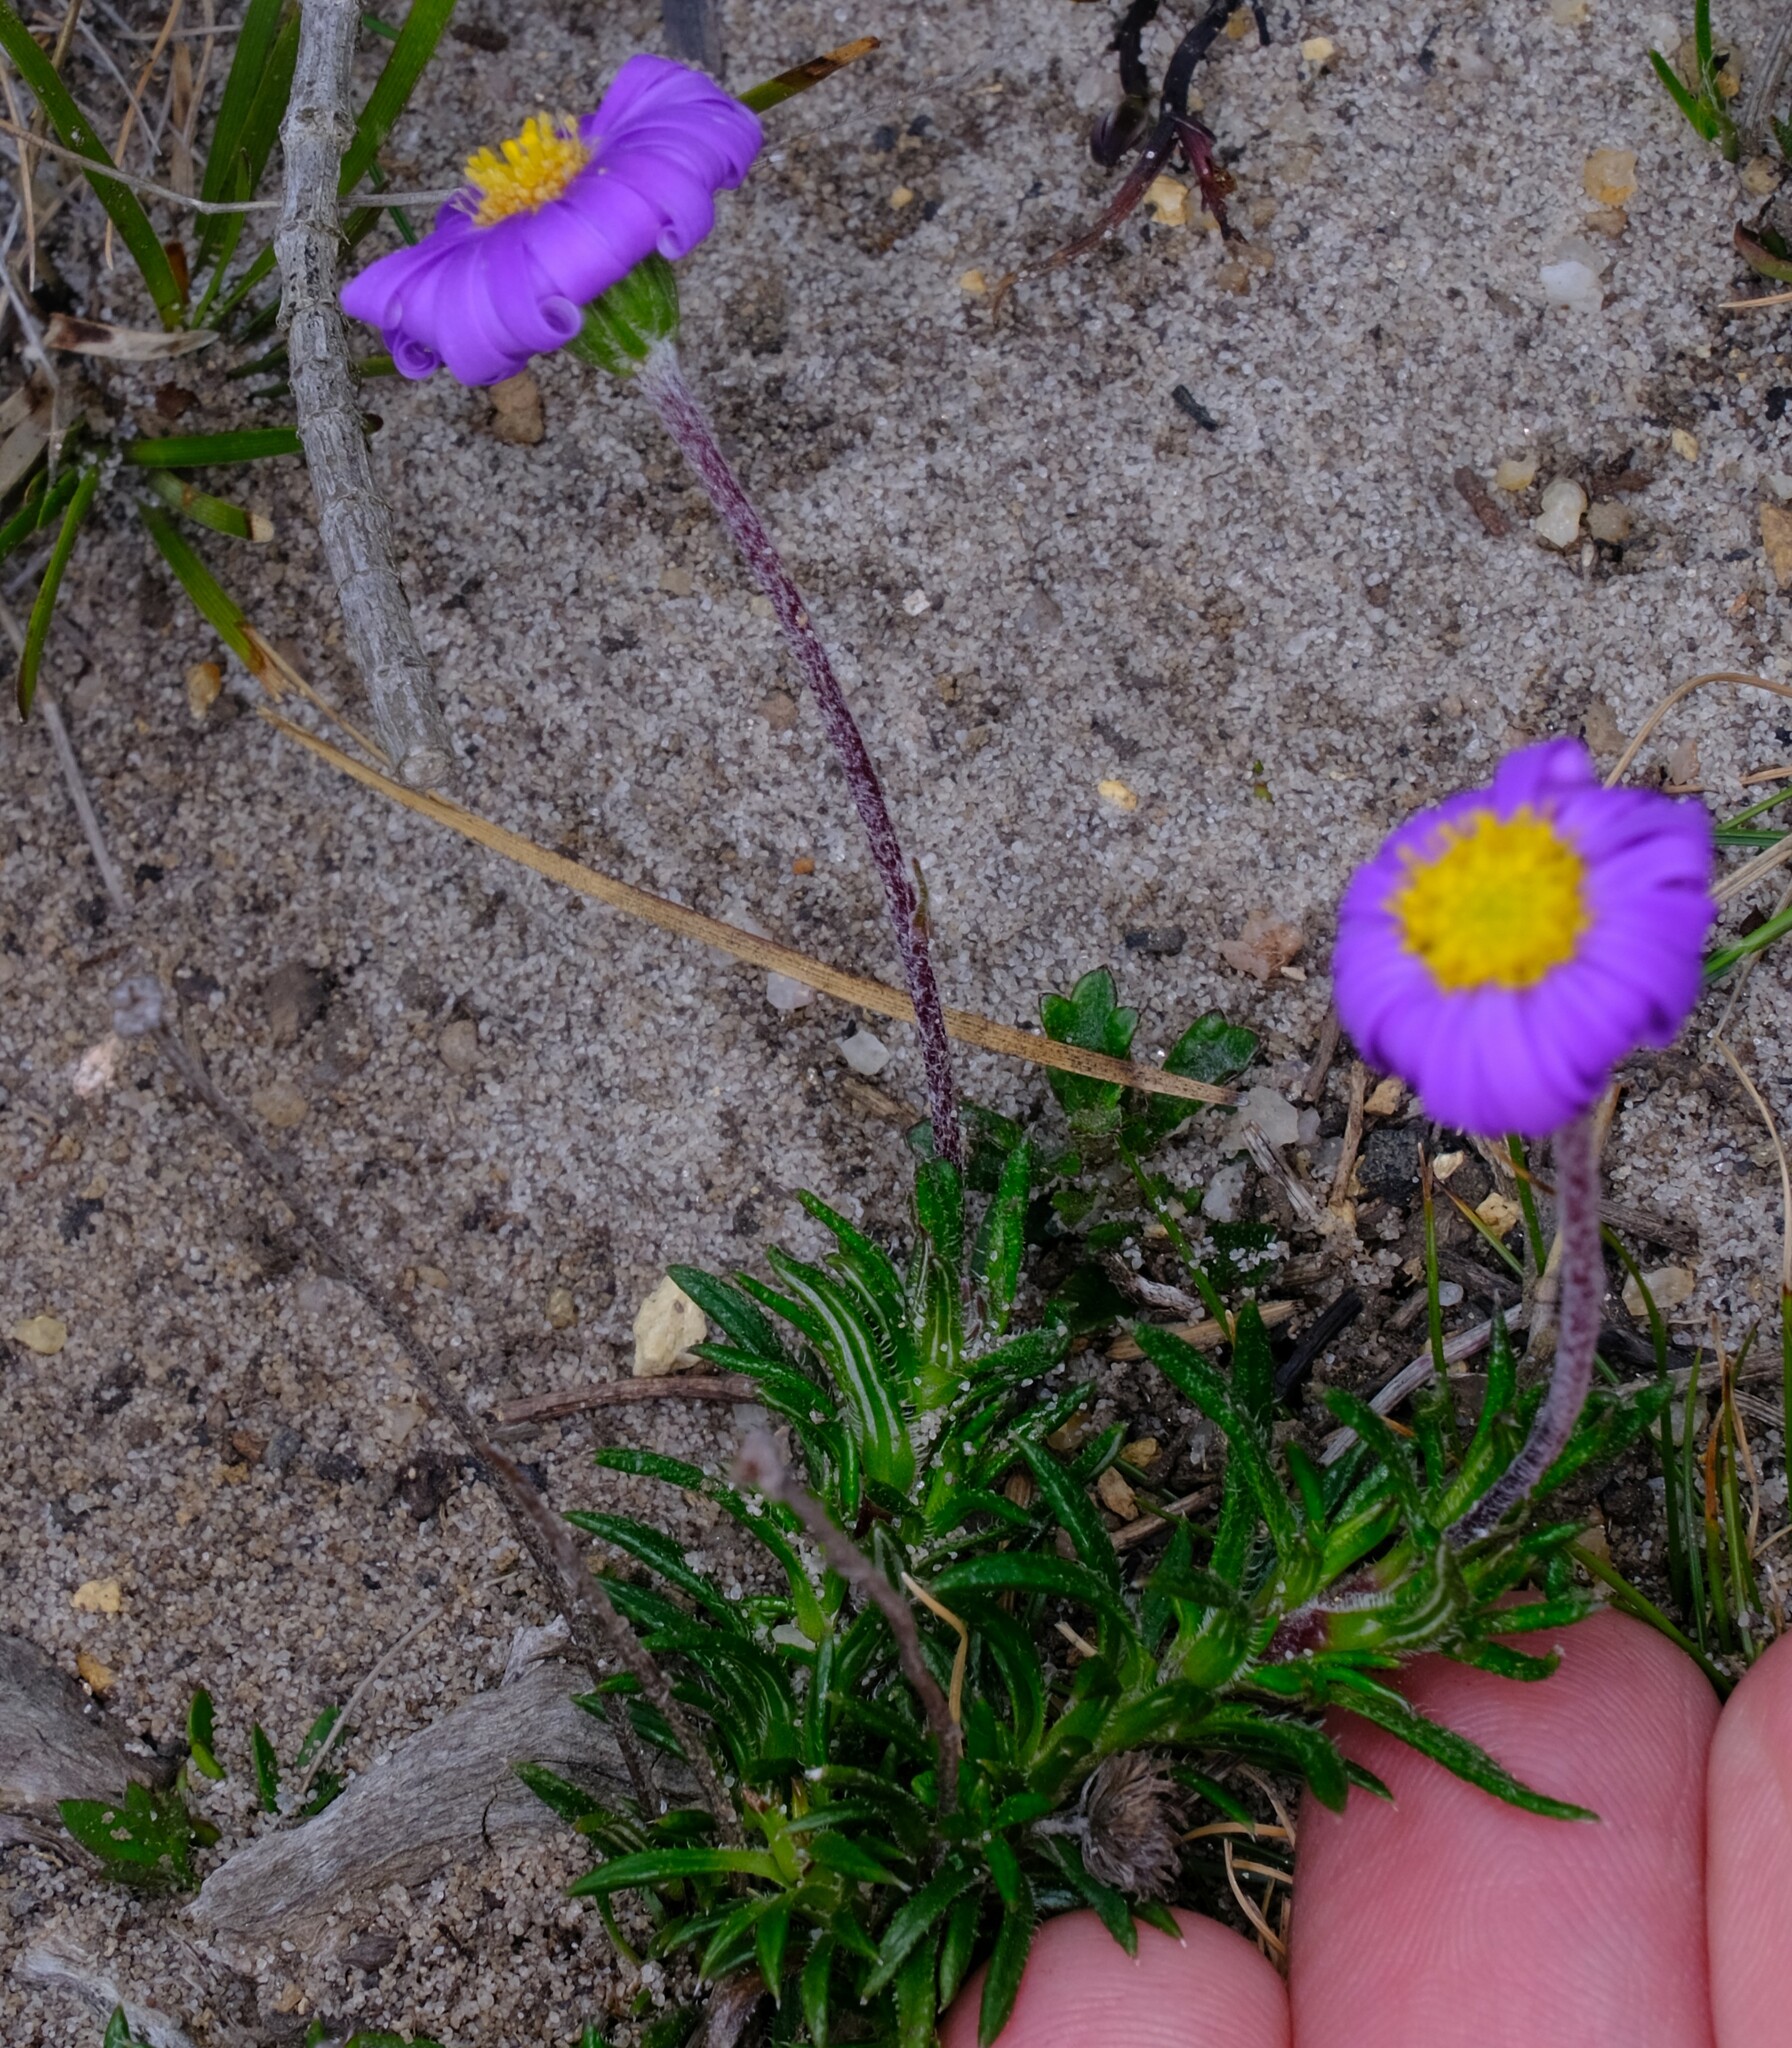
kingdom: Plantae
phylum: Tracheophyta
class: Magnoliopsida
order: Asterales
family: Asteraceae
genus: Olearia
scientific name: Olearia ciliata
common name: Fringed daisybush
